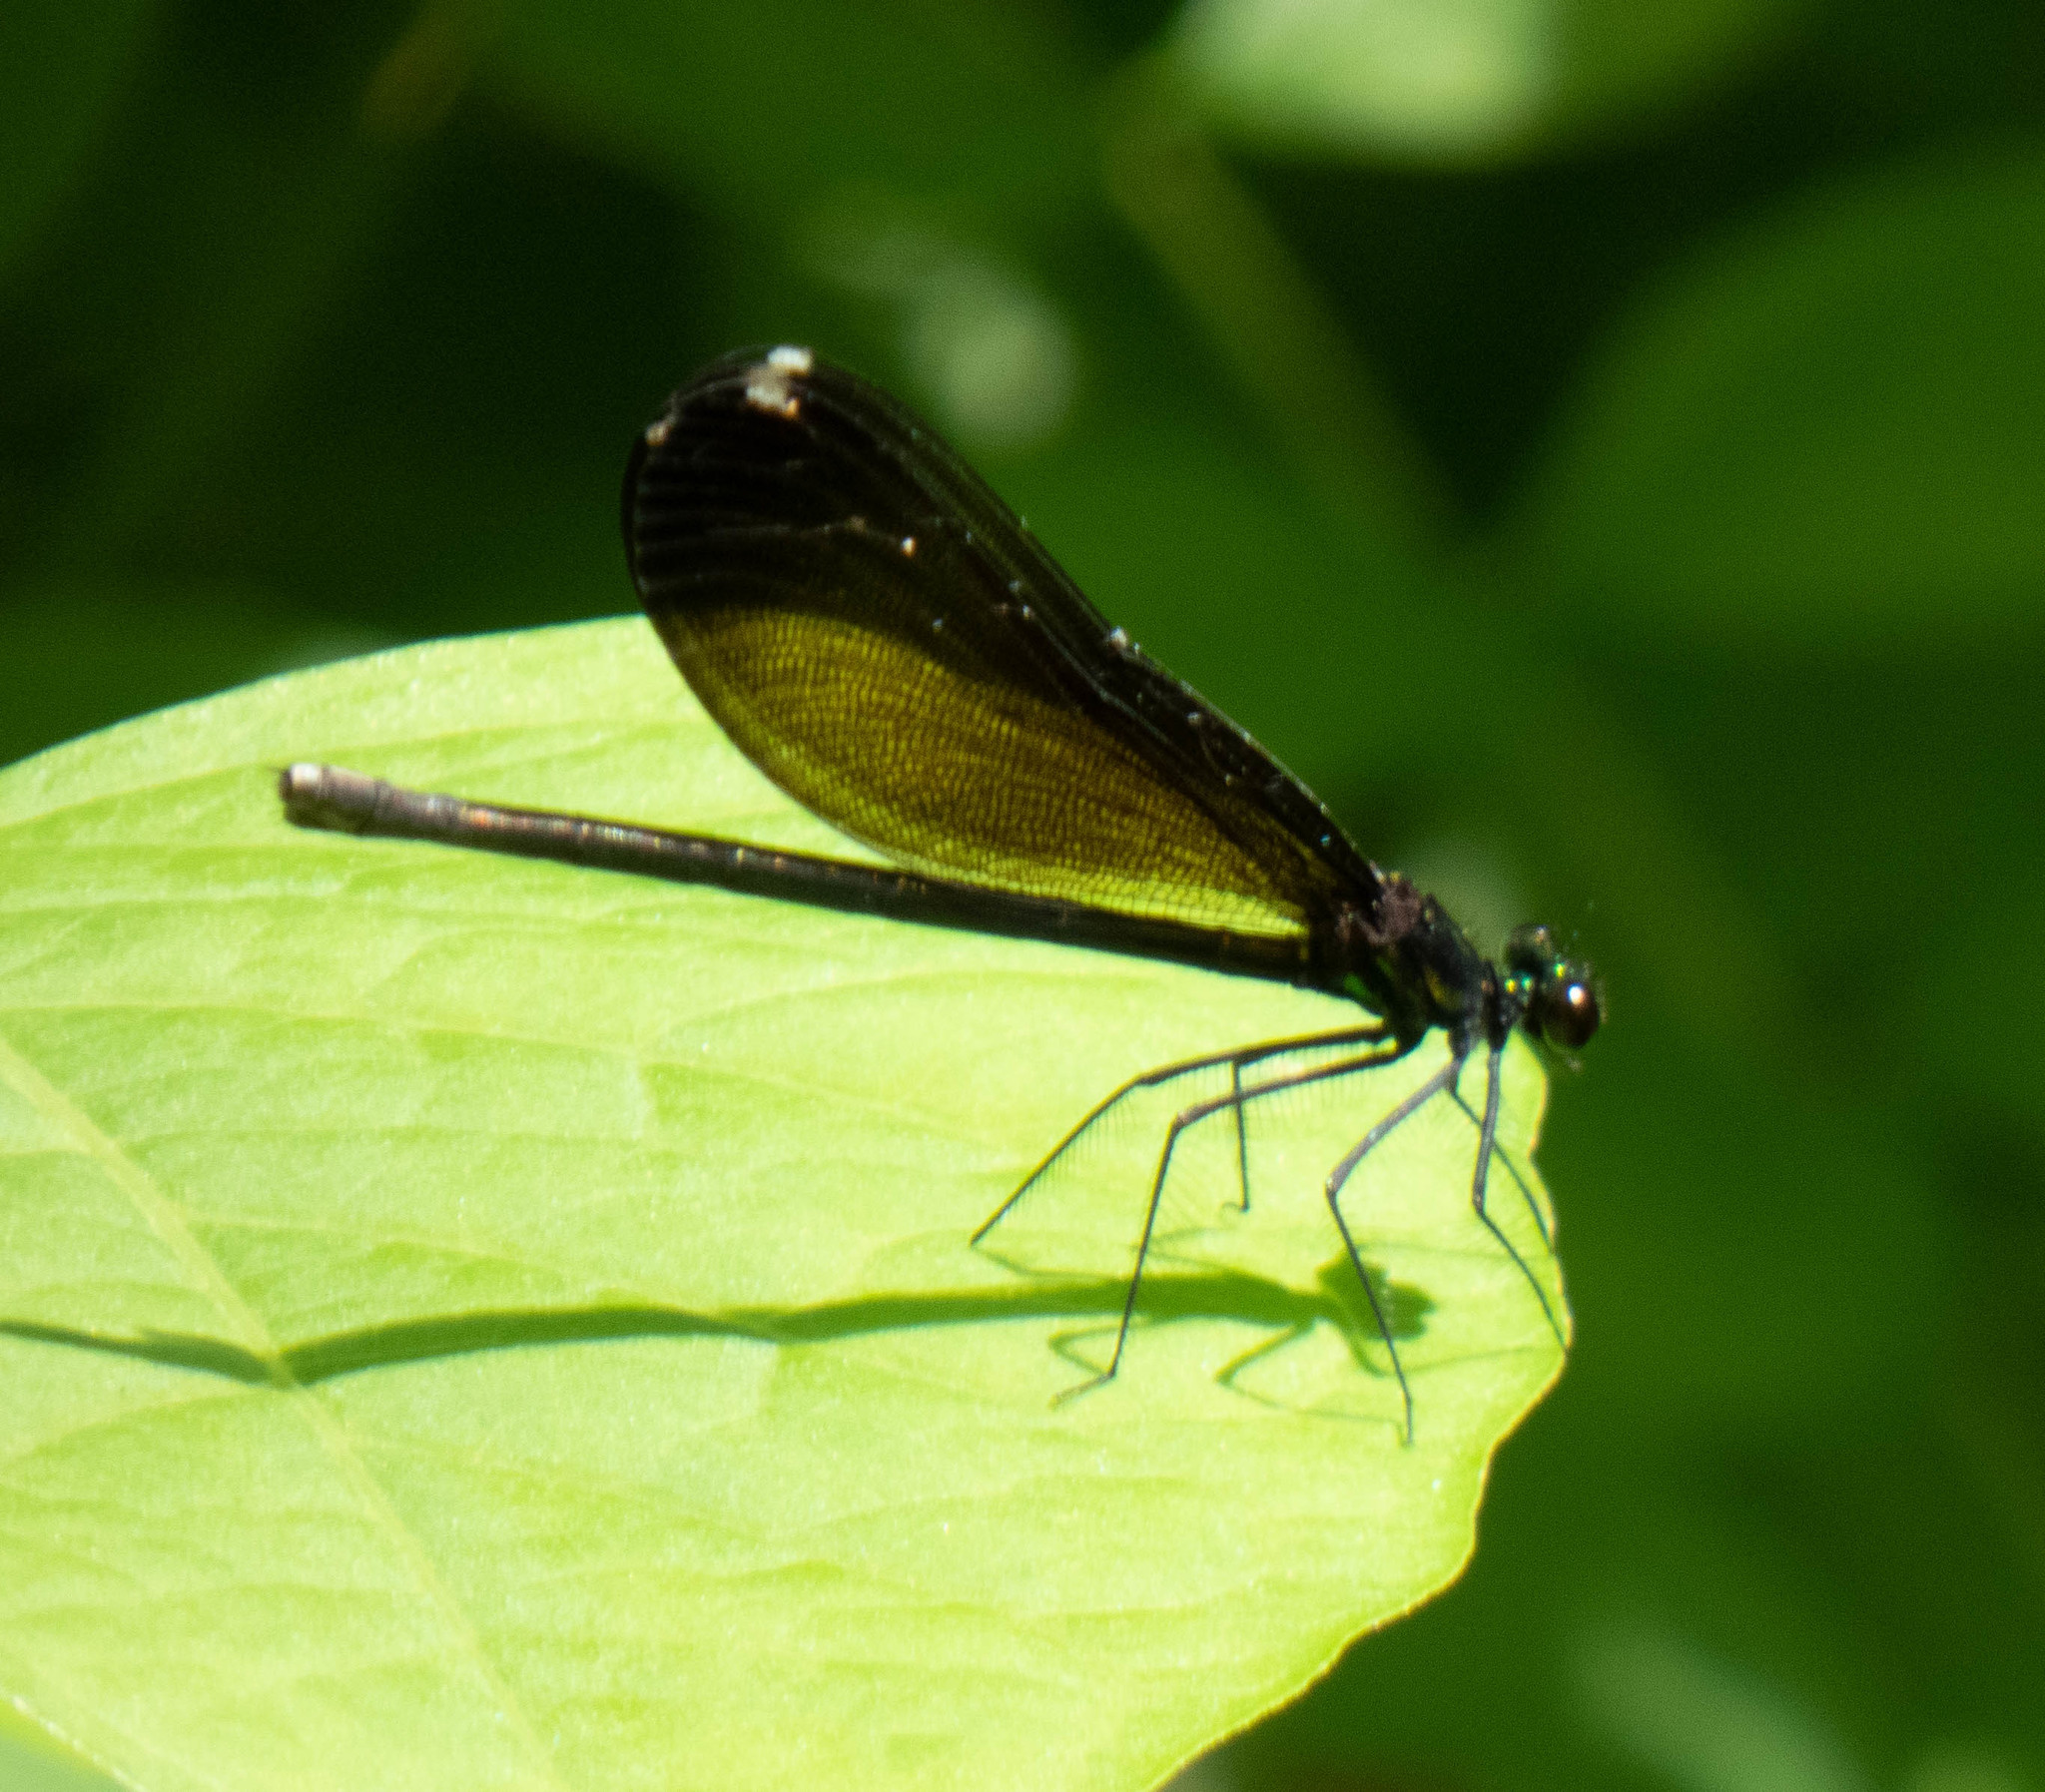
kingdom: Animalia
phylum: Arthropoda
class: Insecta
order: Odonata
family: Calopterygidae
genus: Calopteryx
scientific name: Calopteryx maculata
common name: Ebony jewelwing
